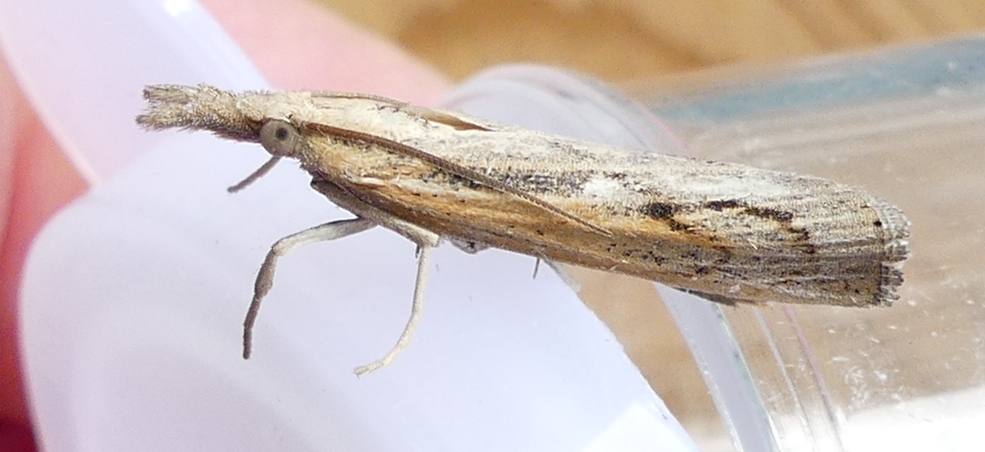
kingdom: Animalia
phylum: Arthropoda
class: Insecta
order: Lepidoptera
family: Crambidae
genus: Pediasia
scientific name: Pediasia trisecta
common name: Sod webworm moth
